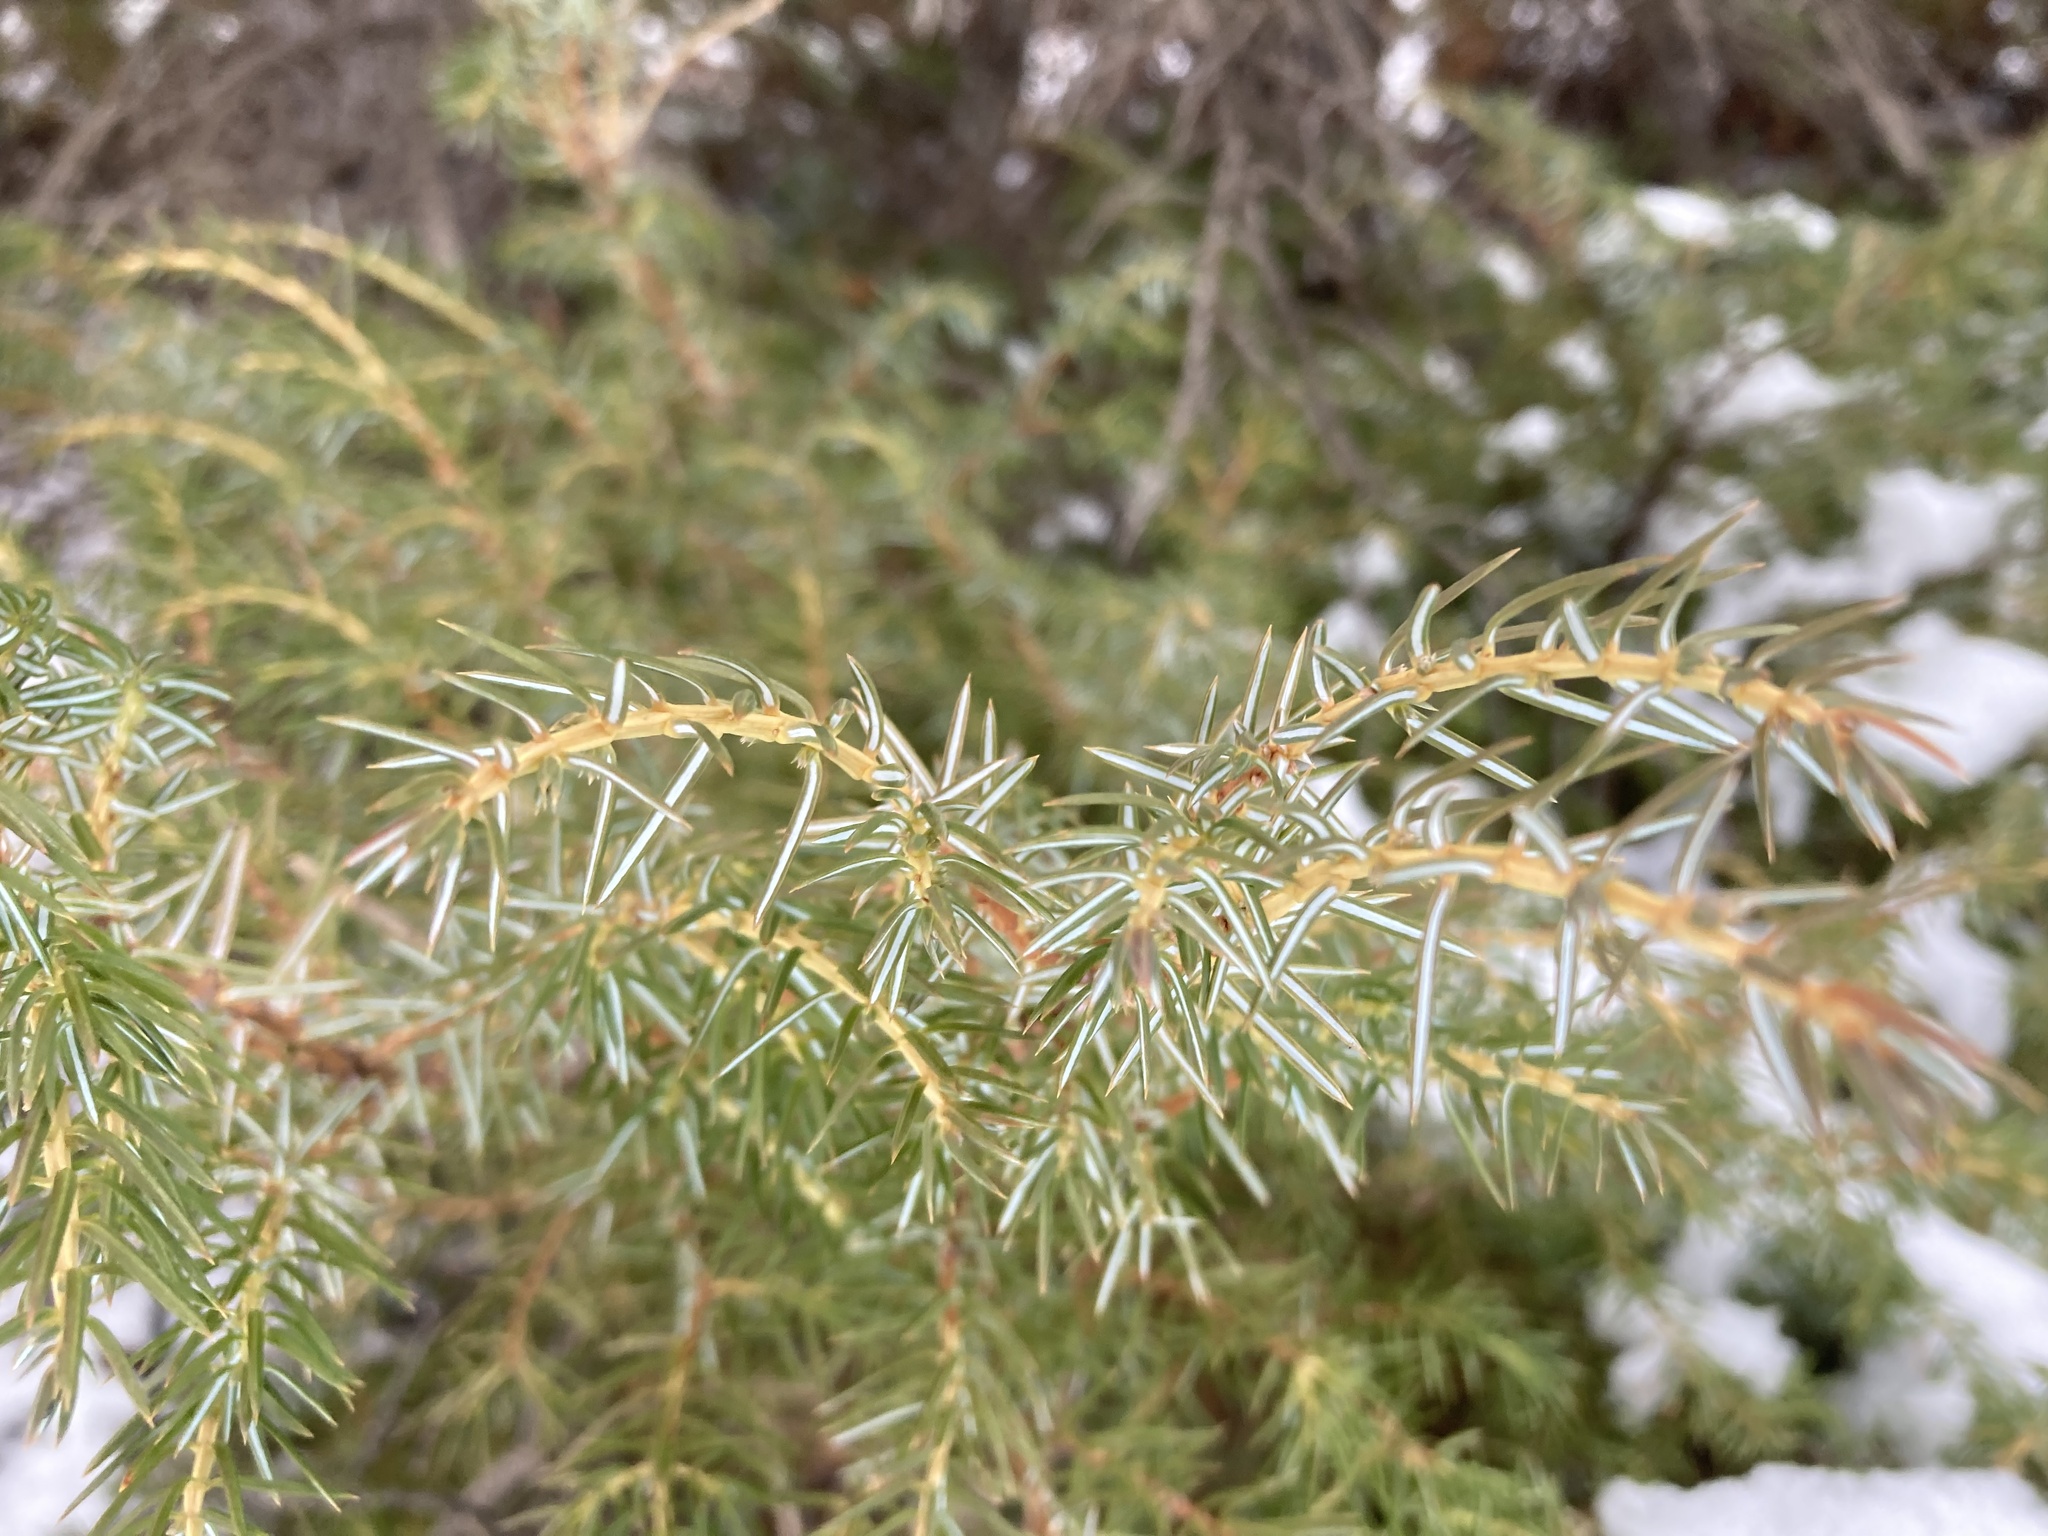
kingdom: Plantae
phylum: Tracheophyta
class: Pinopsida
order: Pinales
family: Cupressaceae
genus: Juniperus
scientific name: Juniperus communis
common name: Common juniper
